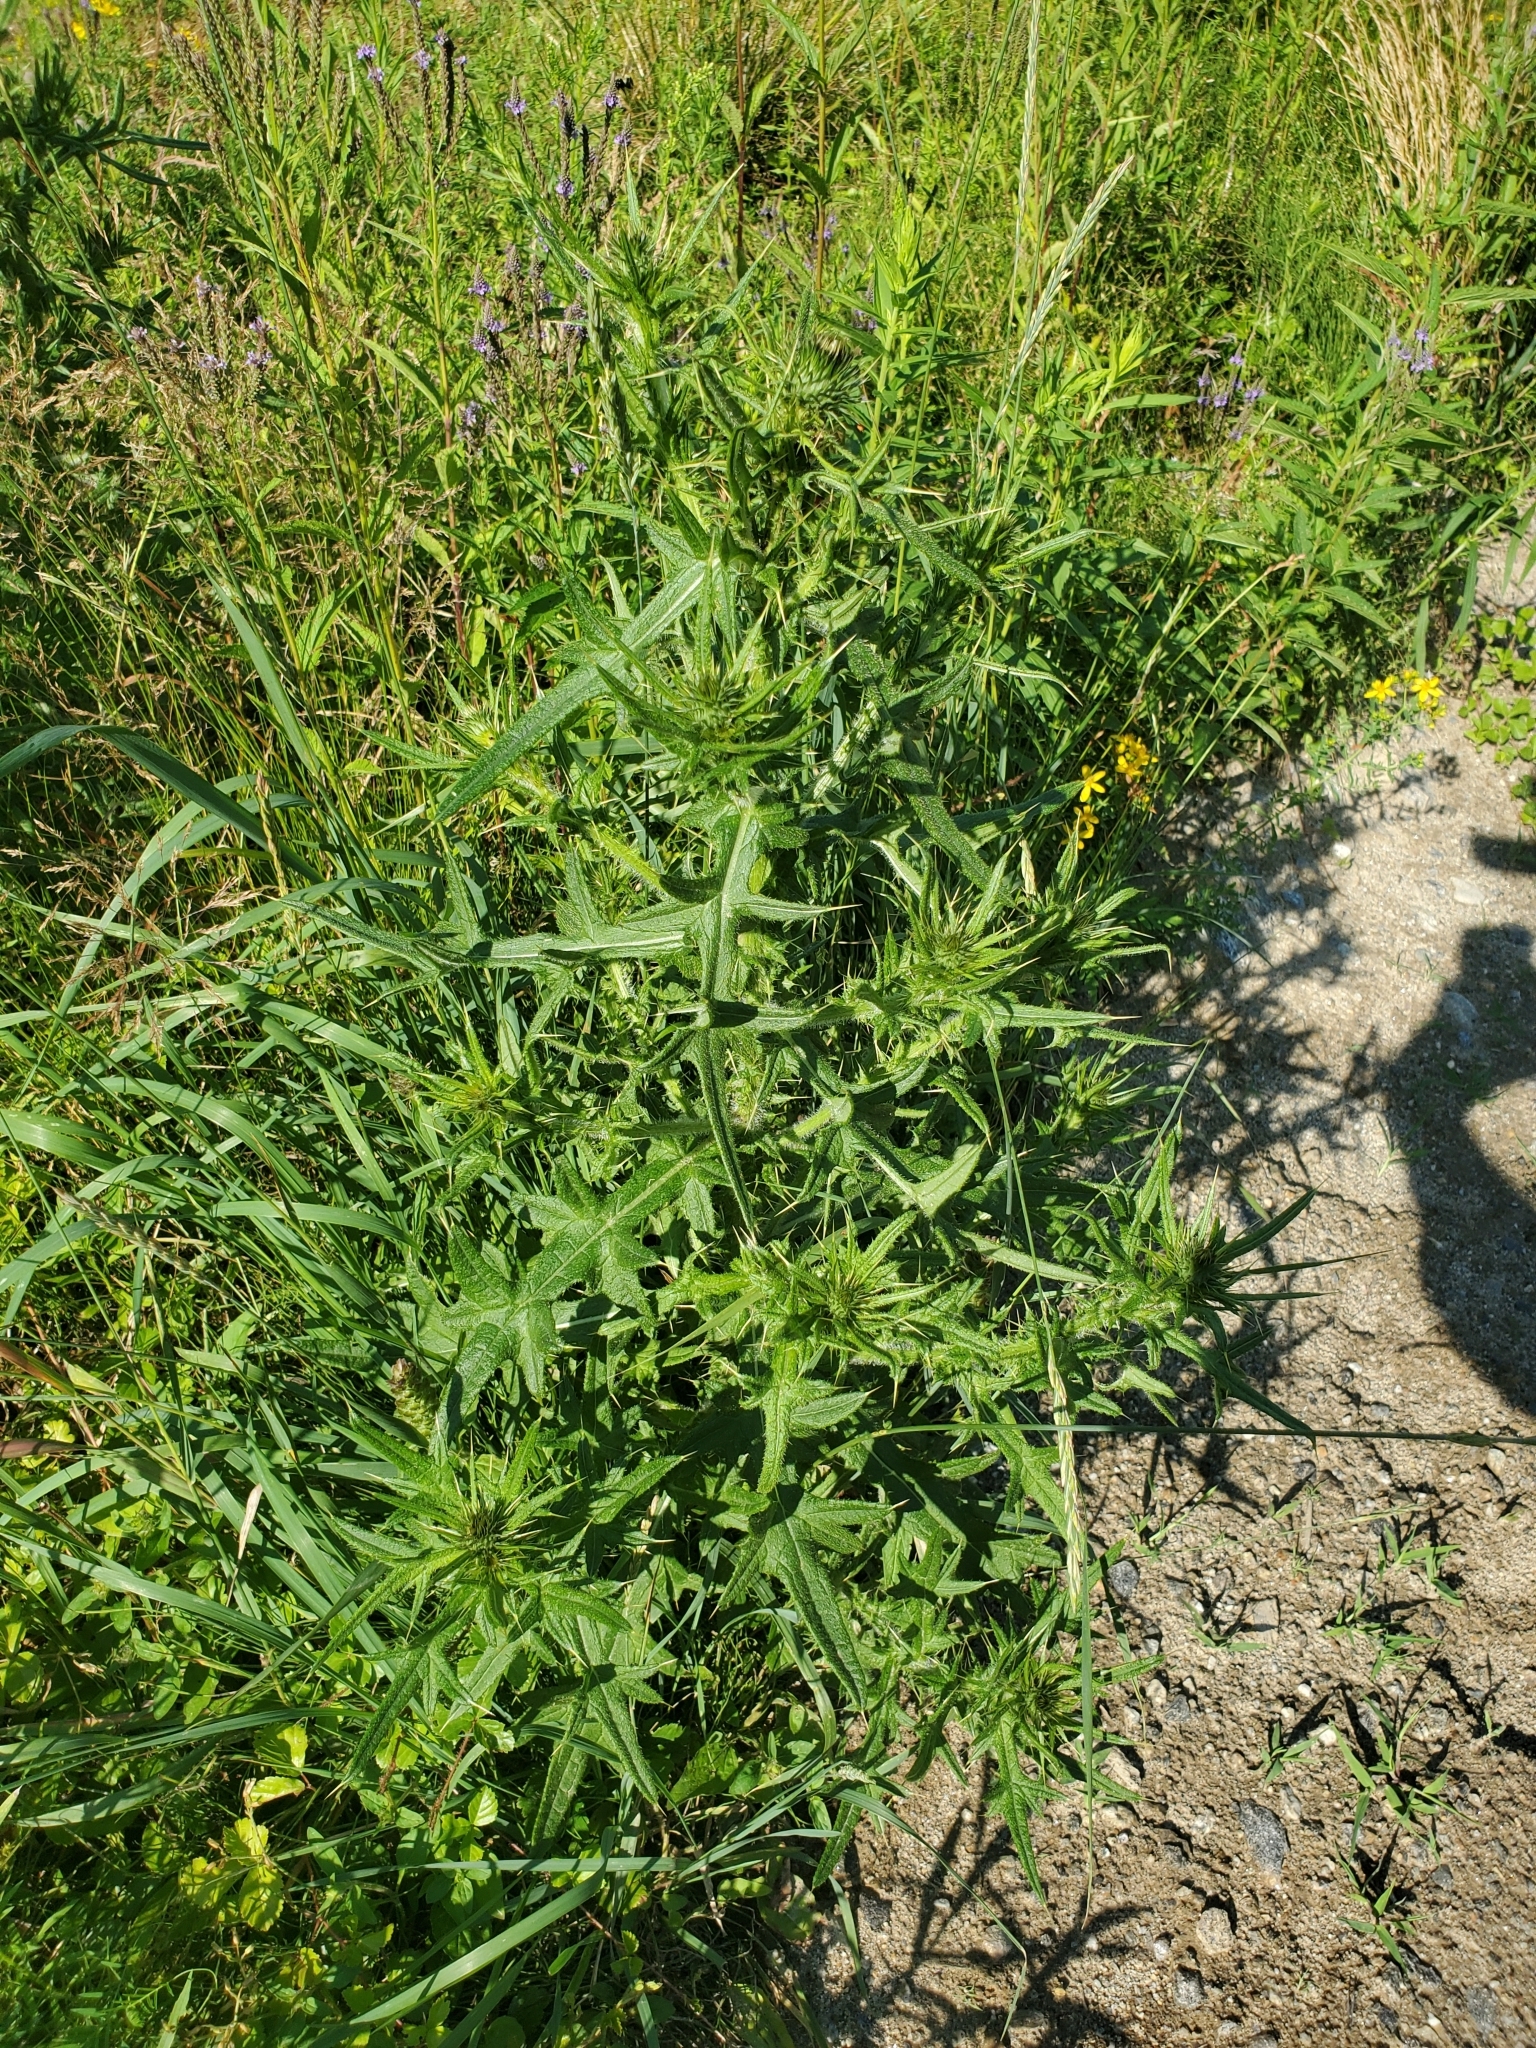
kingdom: Plantae
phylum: Tracheophyta
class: Magnoliopsida
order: Asterales
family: Asteraceae
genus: Cirsium
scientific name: Cirsium vulgare
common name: Bull thistle
